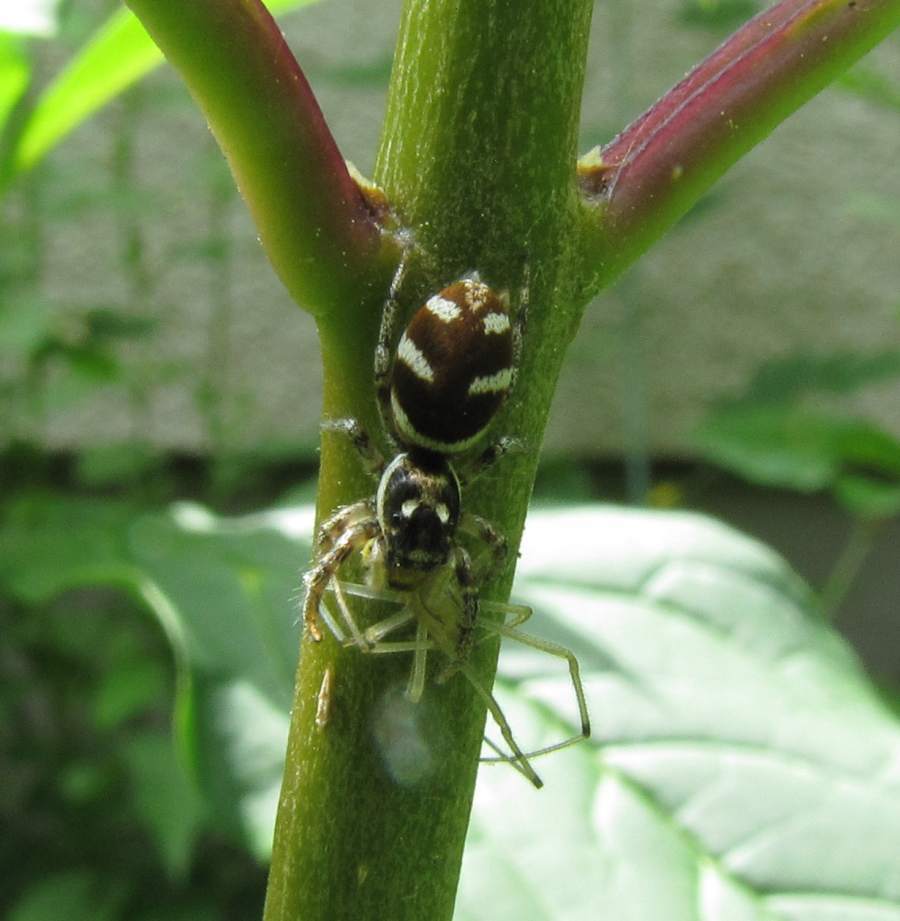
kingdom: Animalia
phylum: Arthropoda
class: Arachnida
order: Araneae
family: Salticidae
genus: Salticus
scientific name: Salticus scenicus
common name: Zebra jumper
